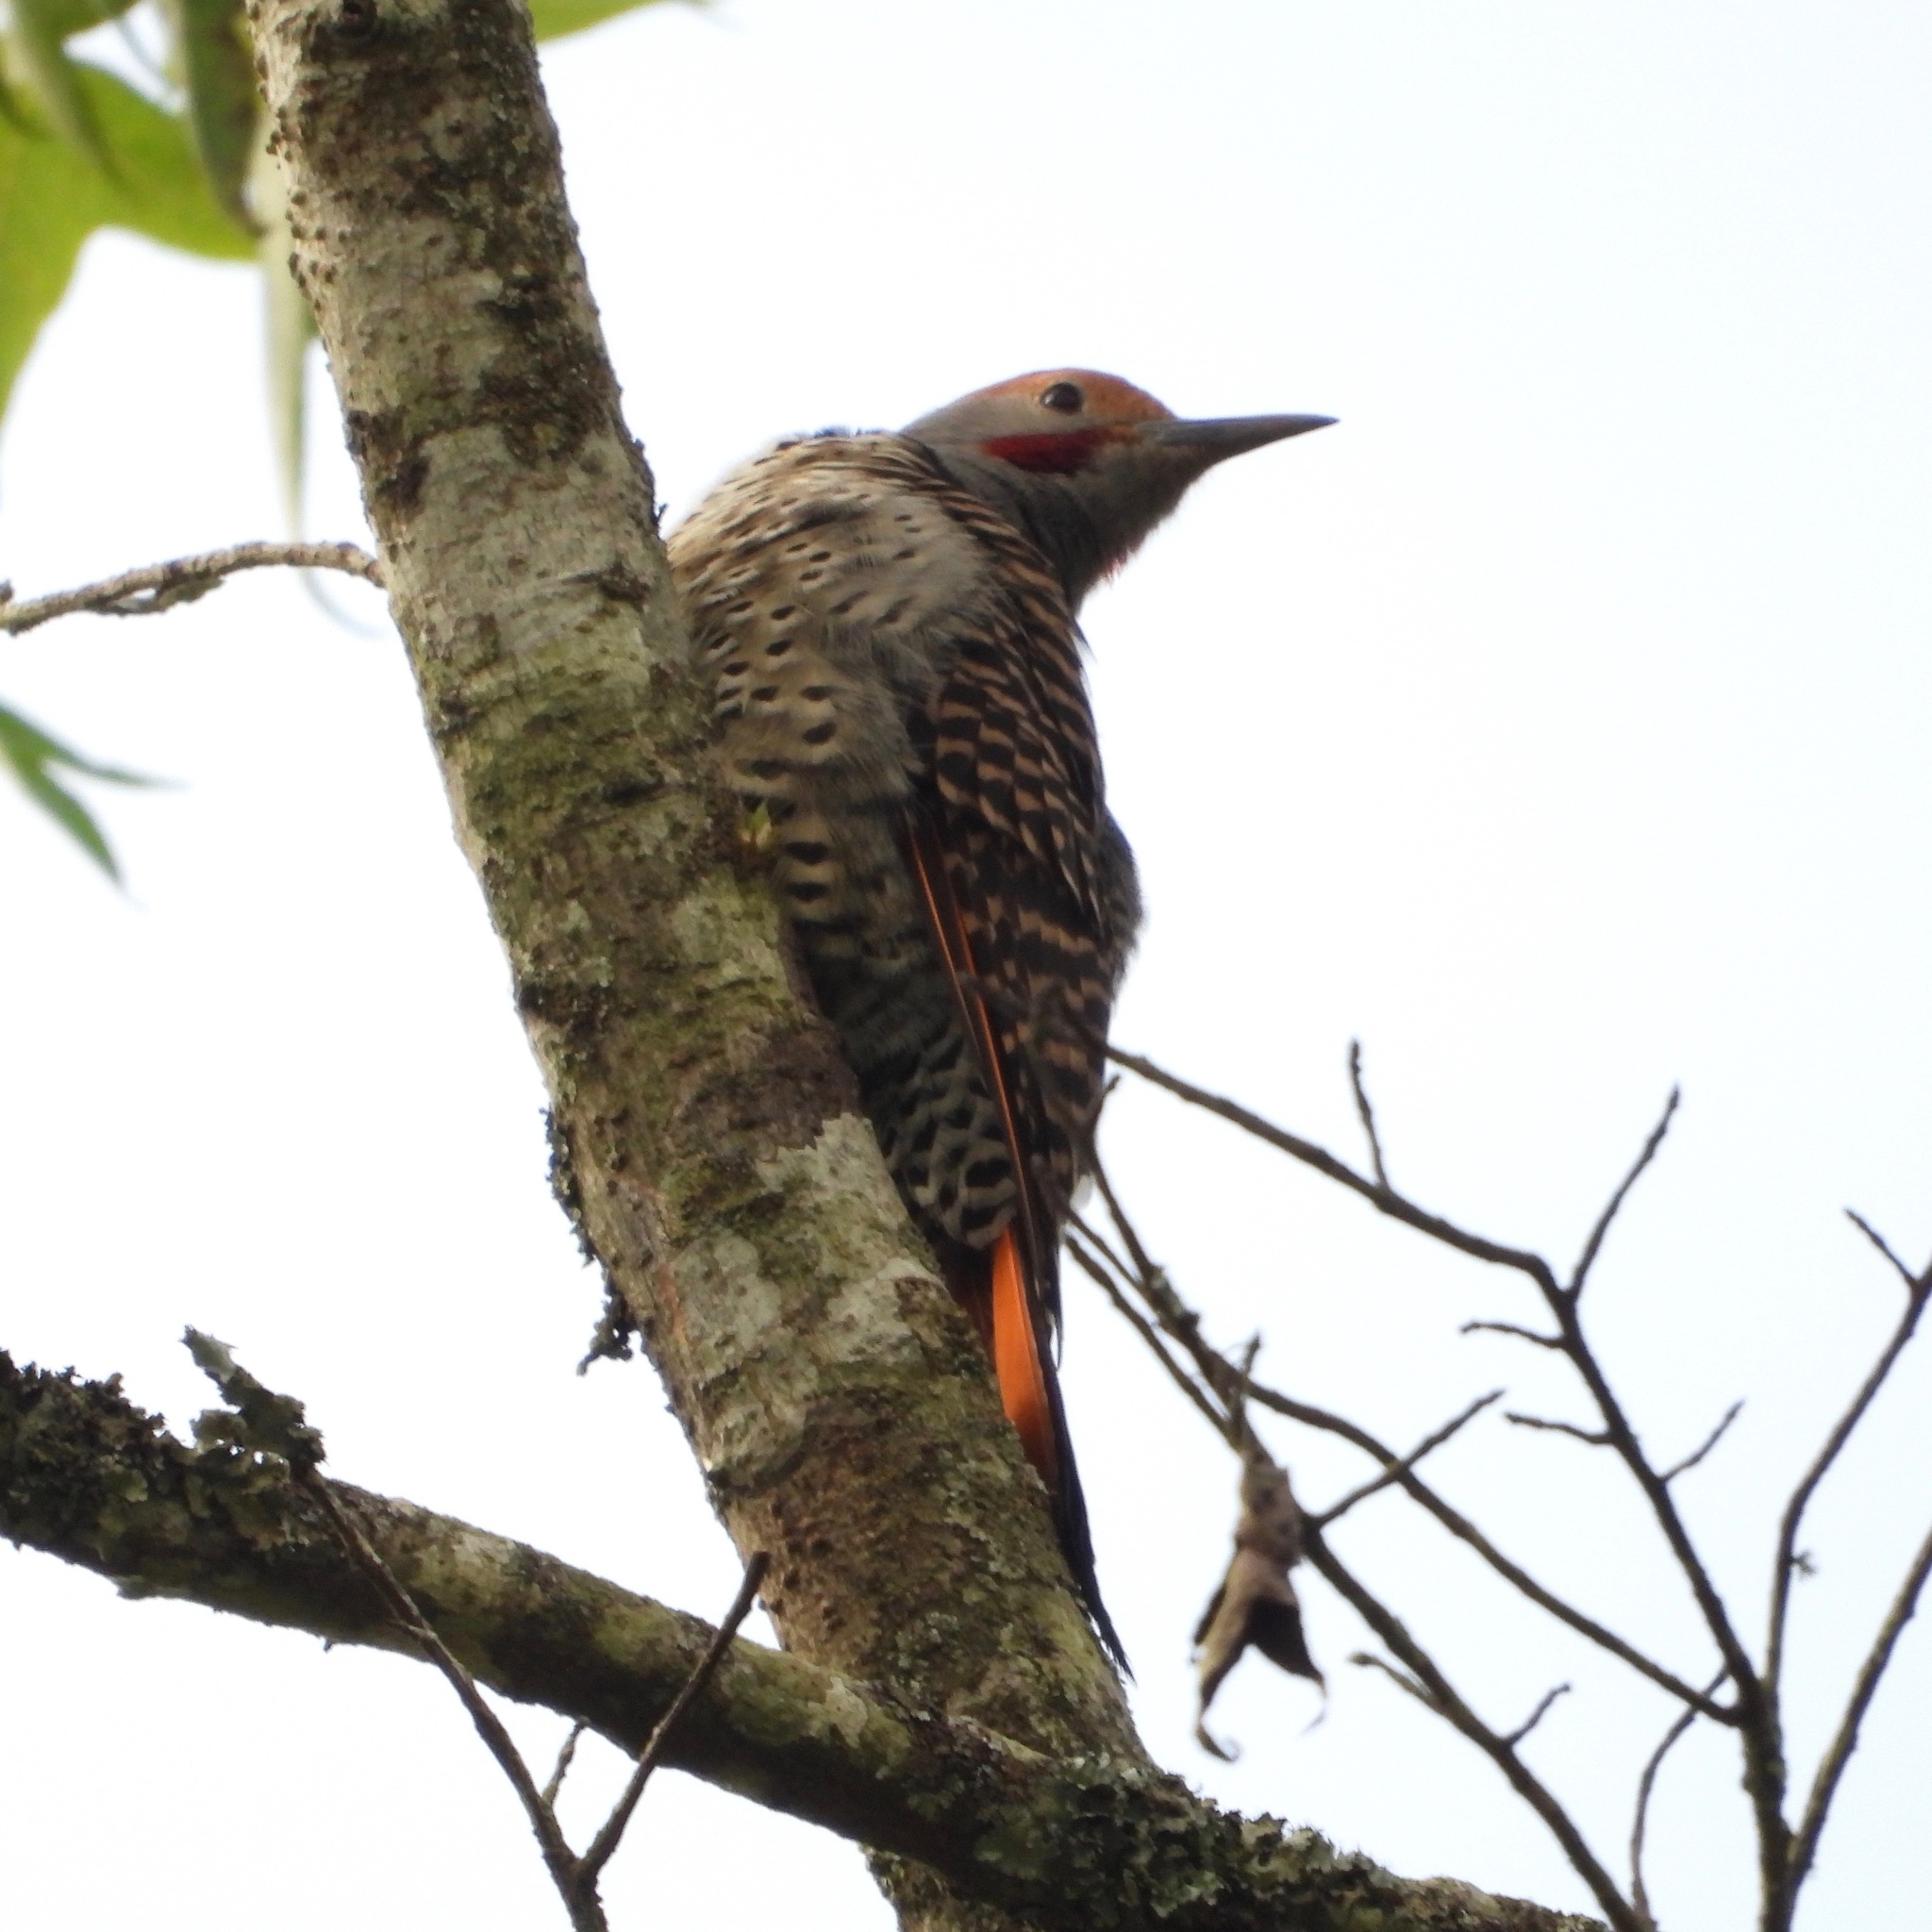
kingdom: Animalia
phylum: Chordata
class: Aves
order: Piciformes
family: Picidae
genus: Colaptes
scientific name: Colaptes auratus
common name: Northern flicker
